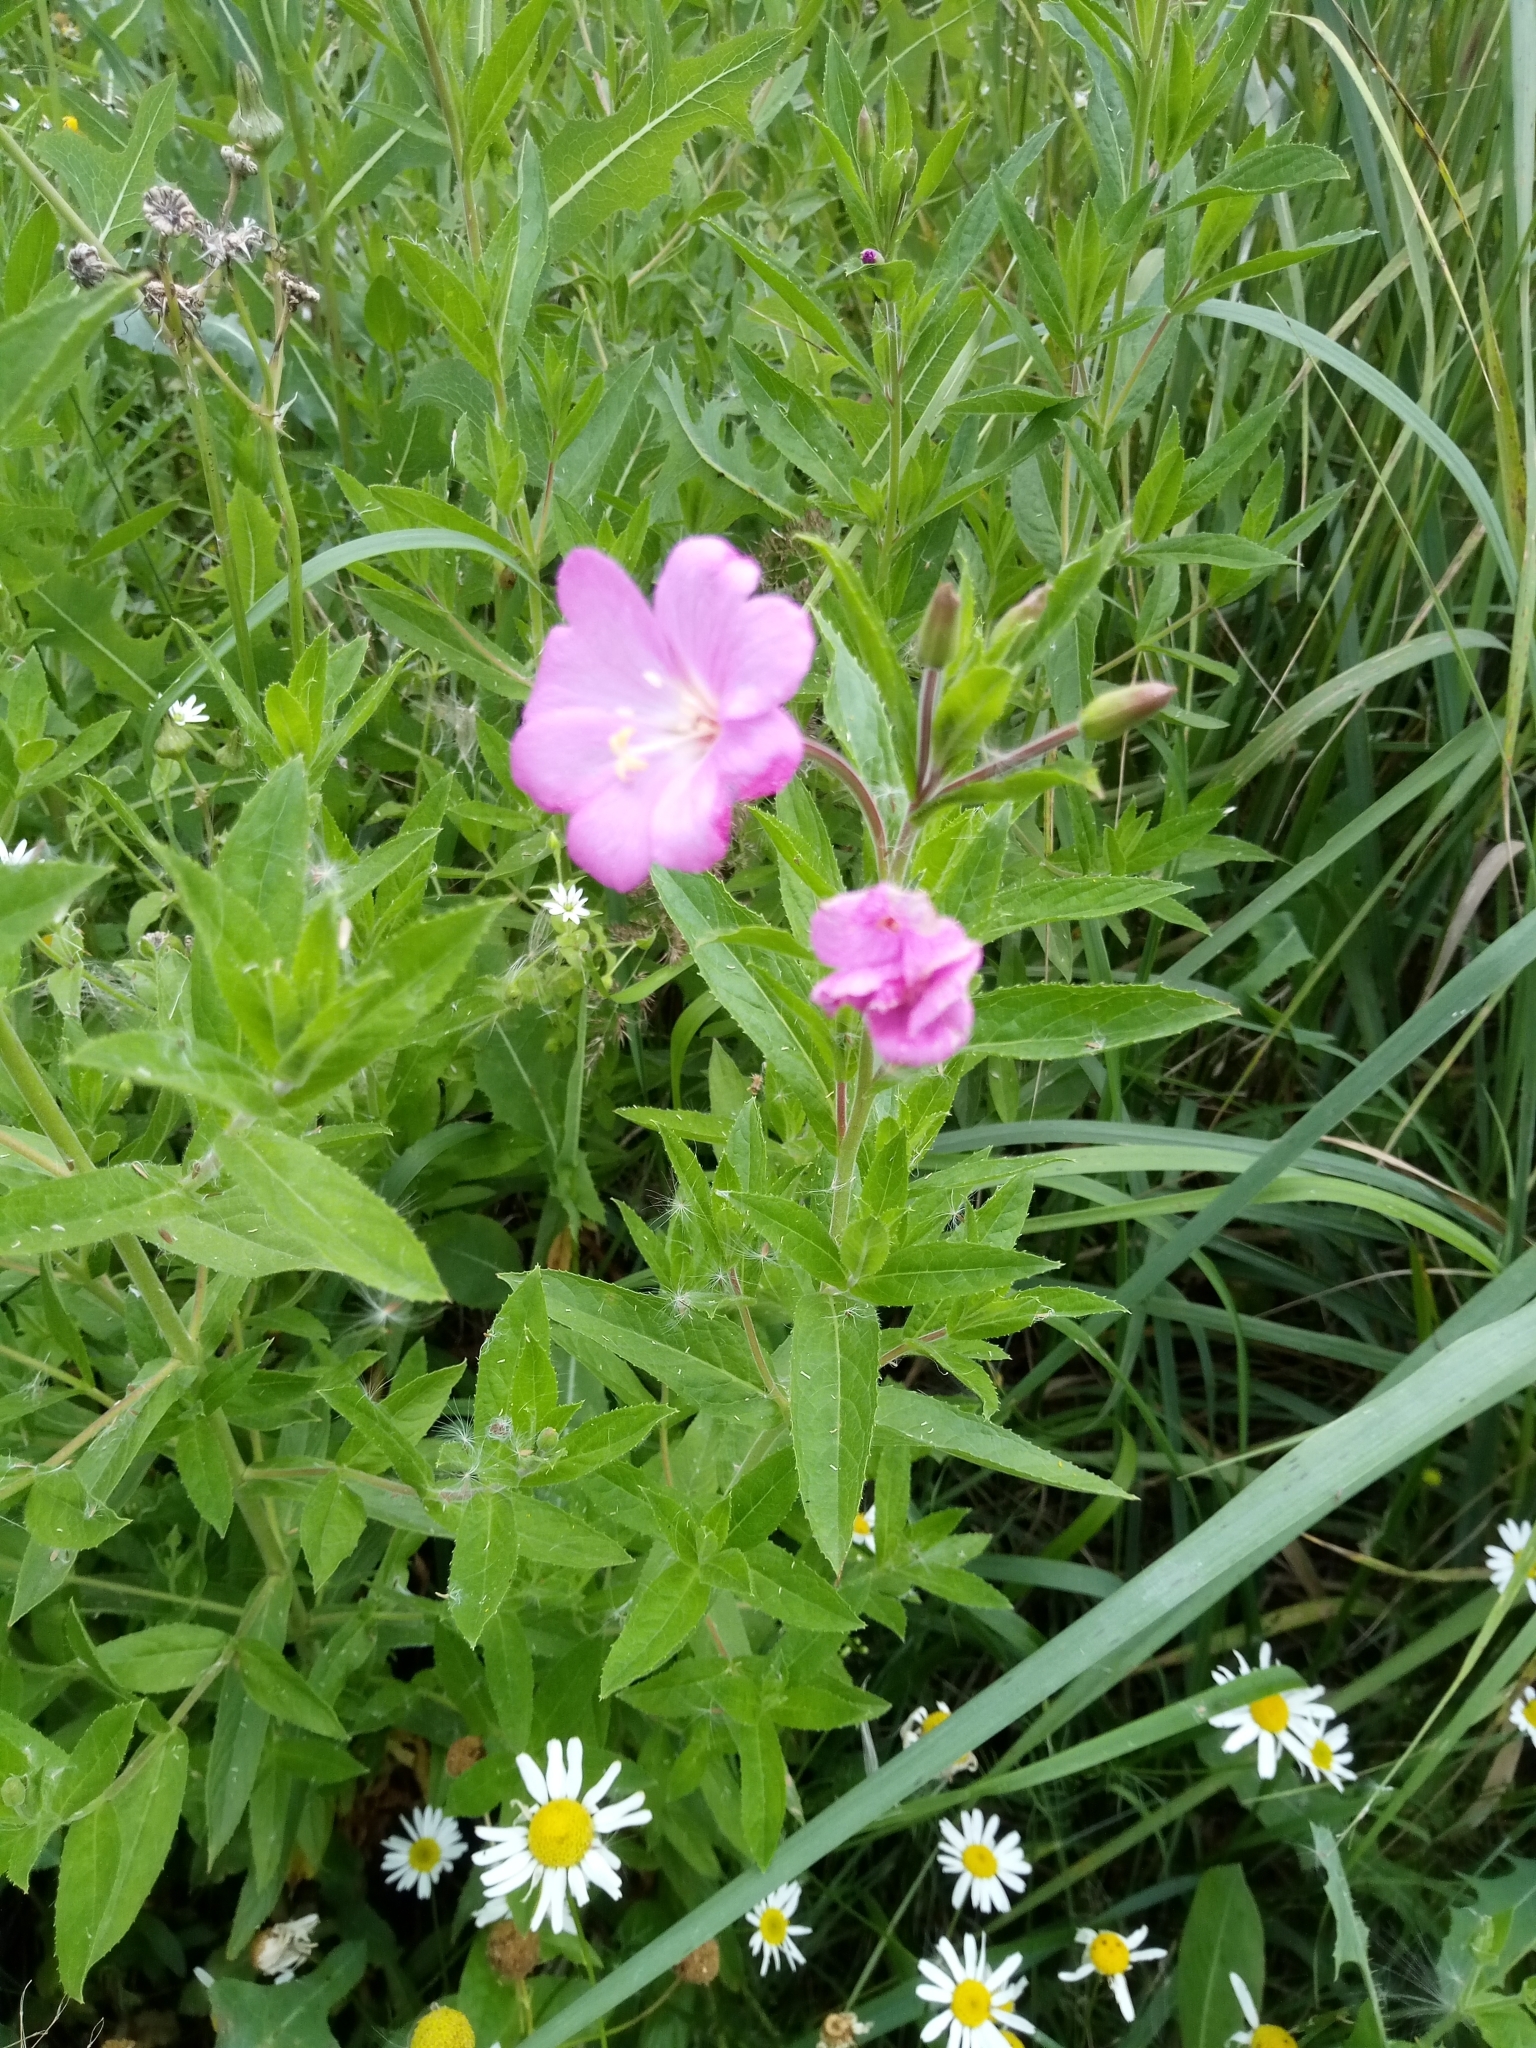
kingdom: Plantae
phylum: Tracheophyta
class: Magnoliopsida
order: Myrtales
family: Onagraceae
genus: Epilobium
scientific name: Epilobium hirsutum
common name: Great willowherb
